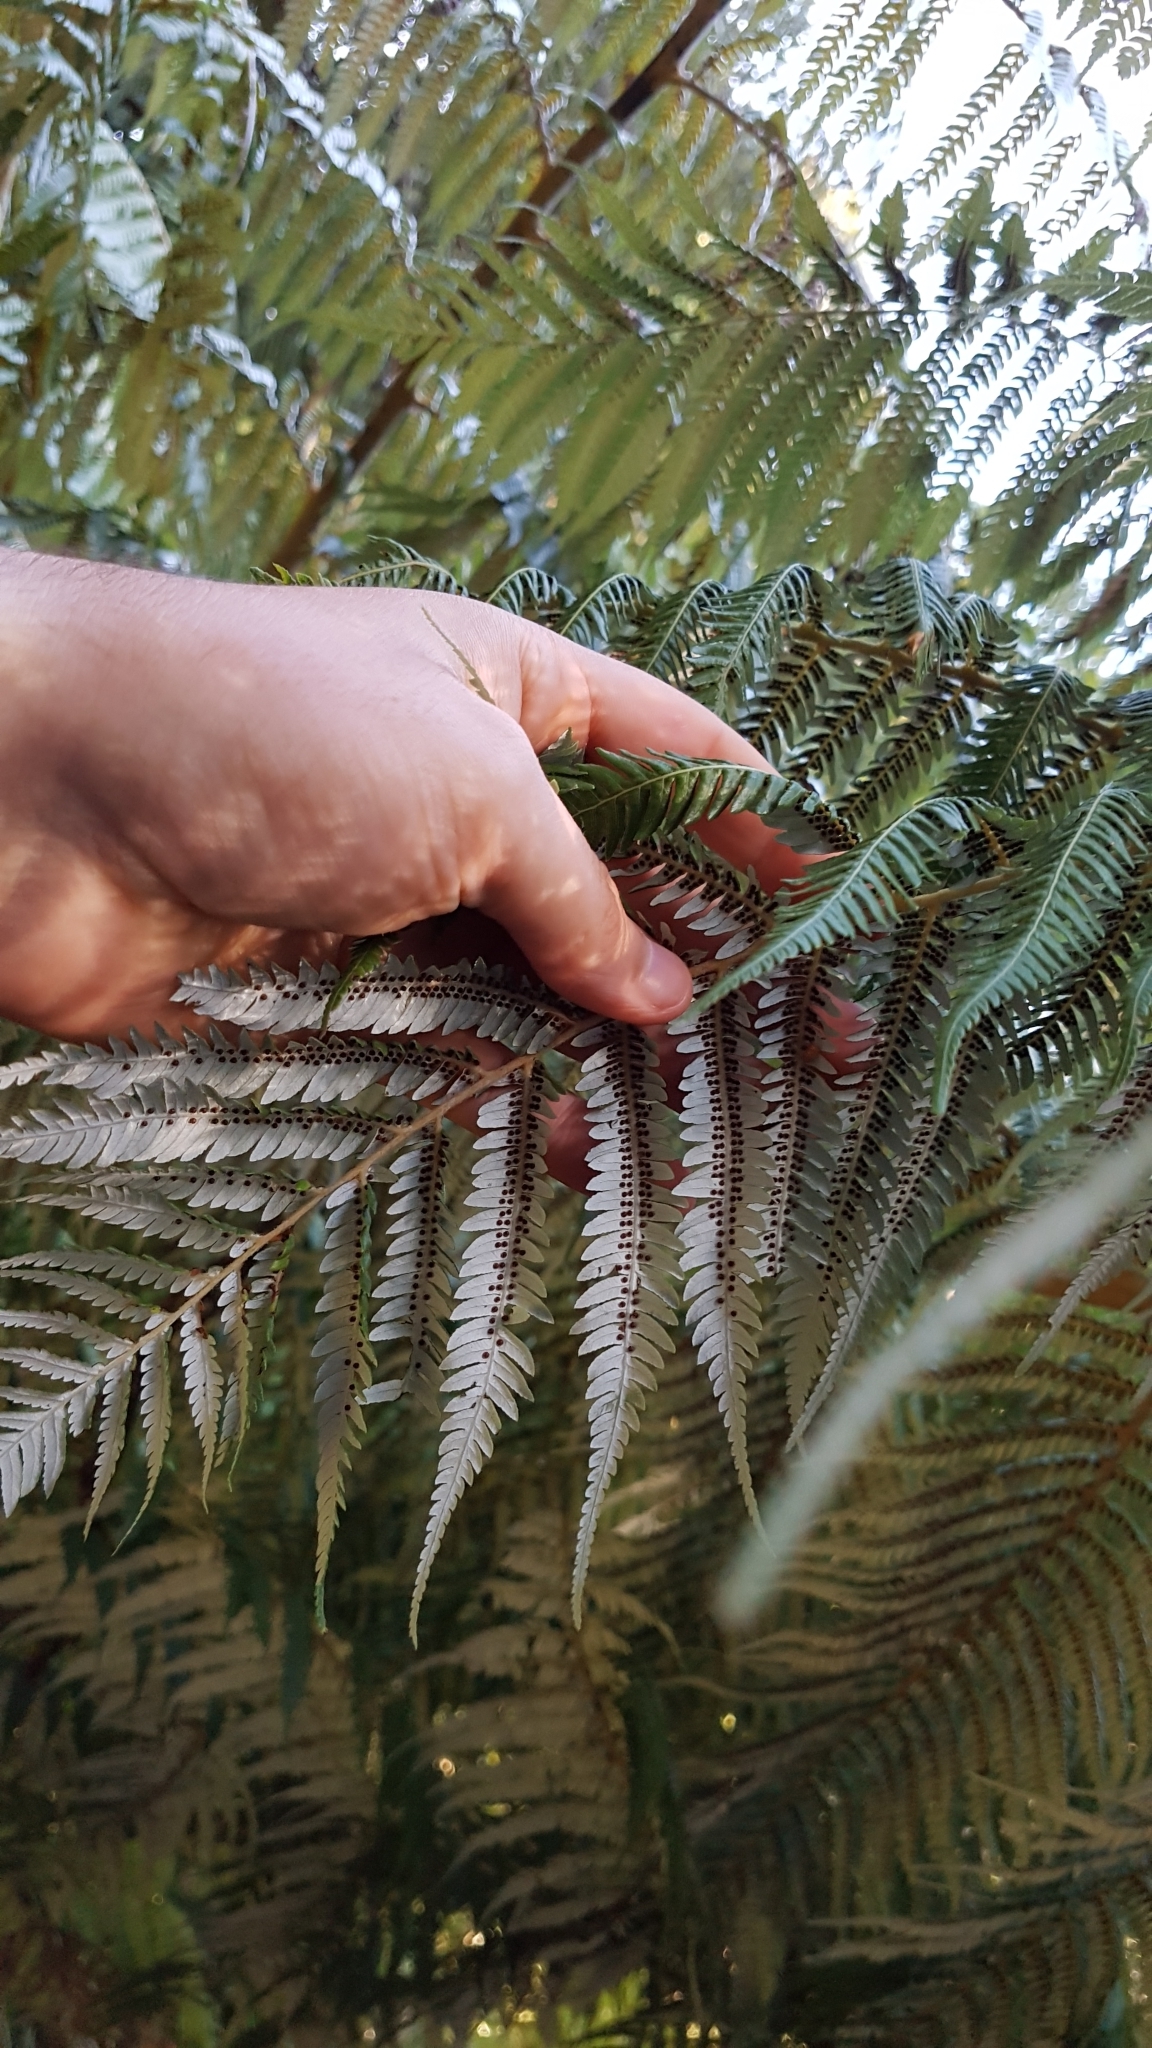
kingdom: Plantae
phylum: Tracheophyta
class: Polypodiopsida
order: Cyatheales
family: Cyatheaceae
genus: Alsophila
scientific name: Alsophila dealbata
